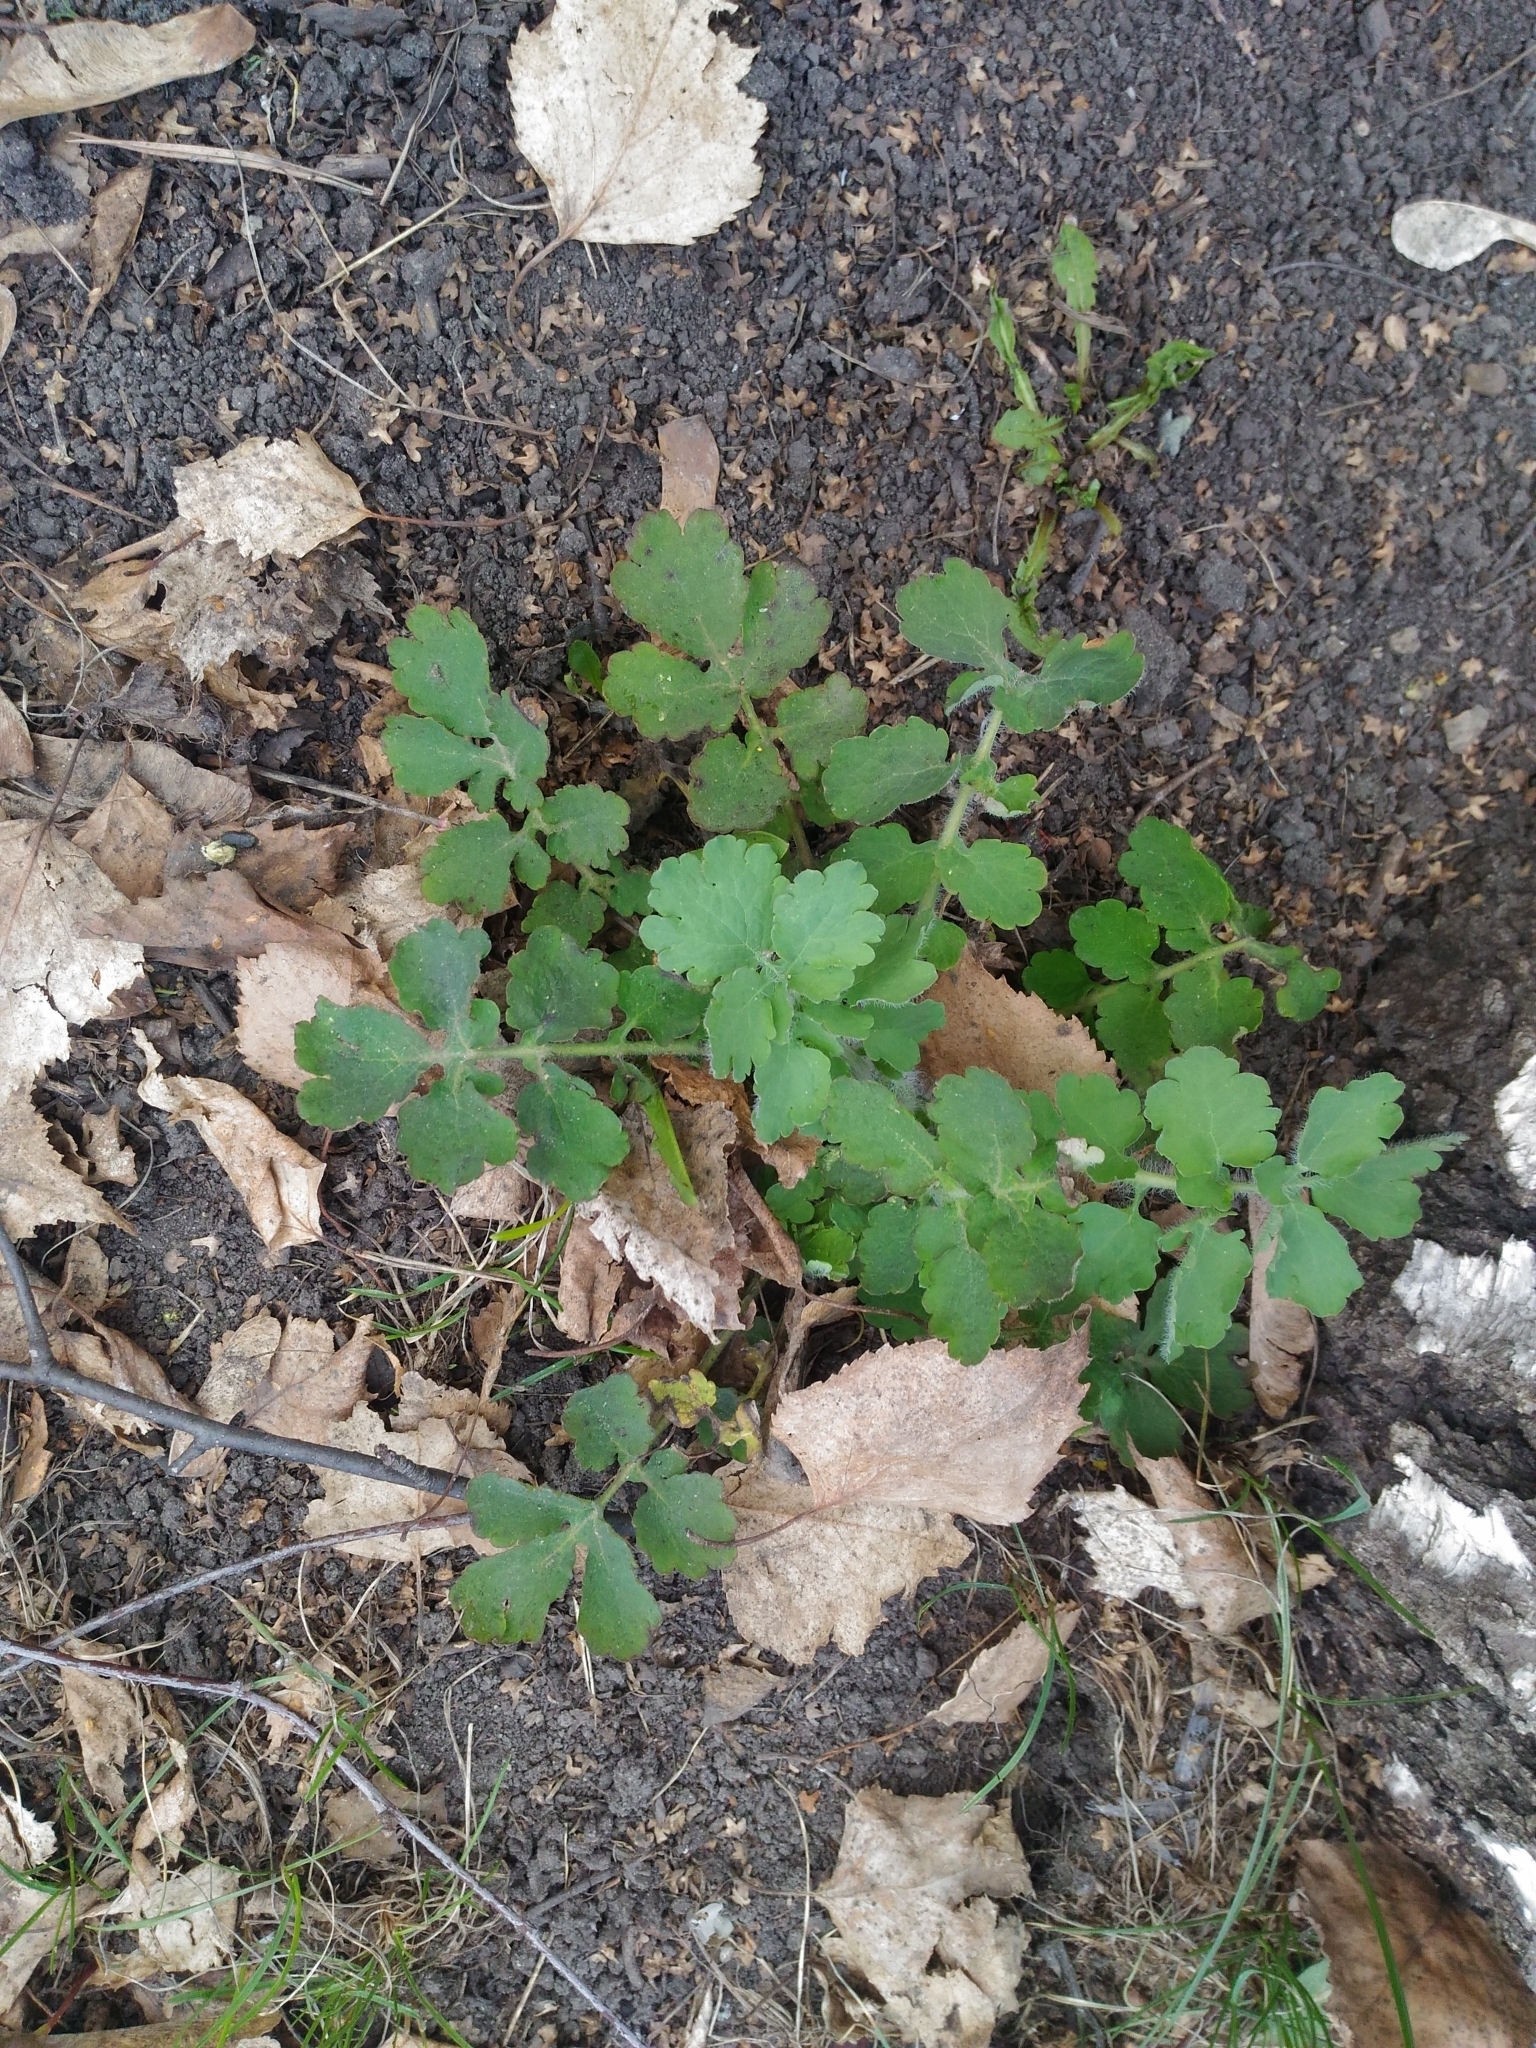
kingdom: Plantae
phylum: Tracheophyta
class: Magnoliopsida
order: Ranunculales
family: Papaveraceae
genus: Chelidonium
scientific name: Chelidonium majus
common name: Greater celandine
